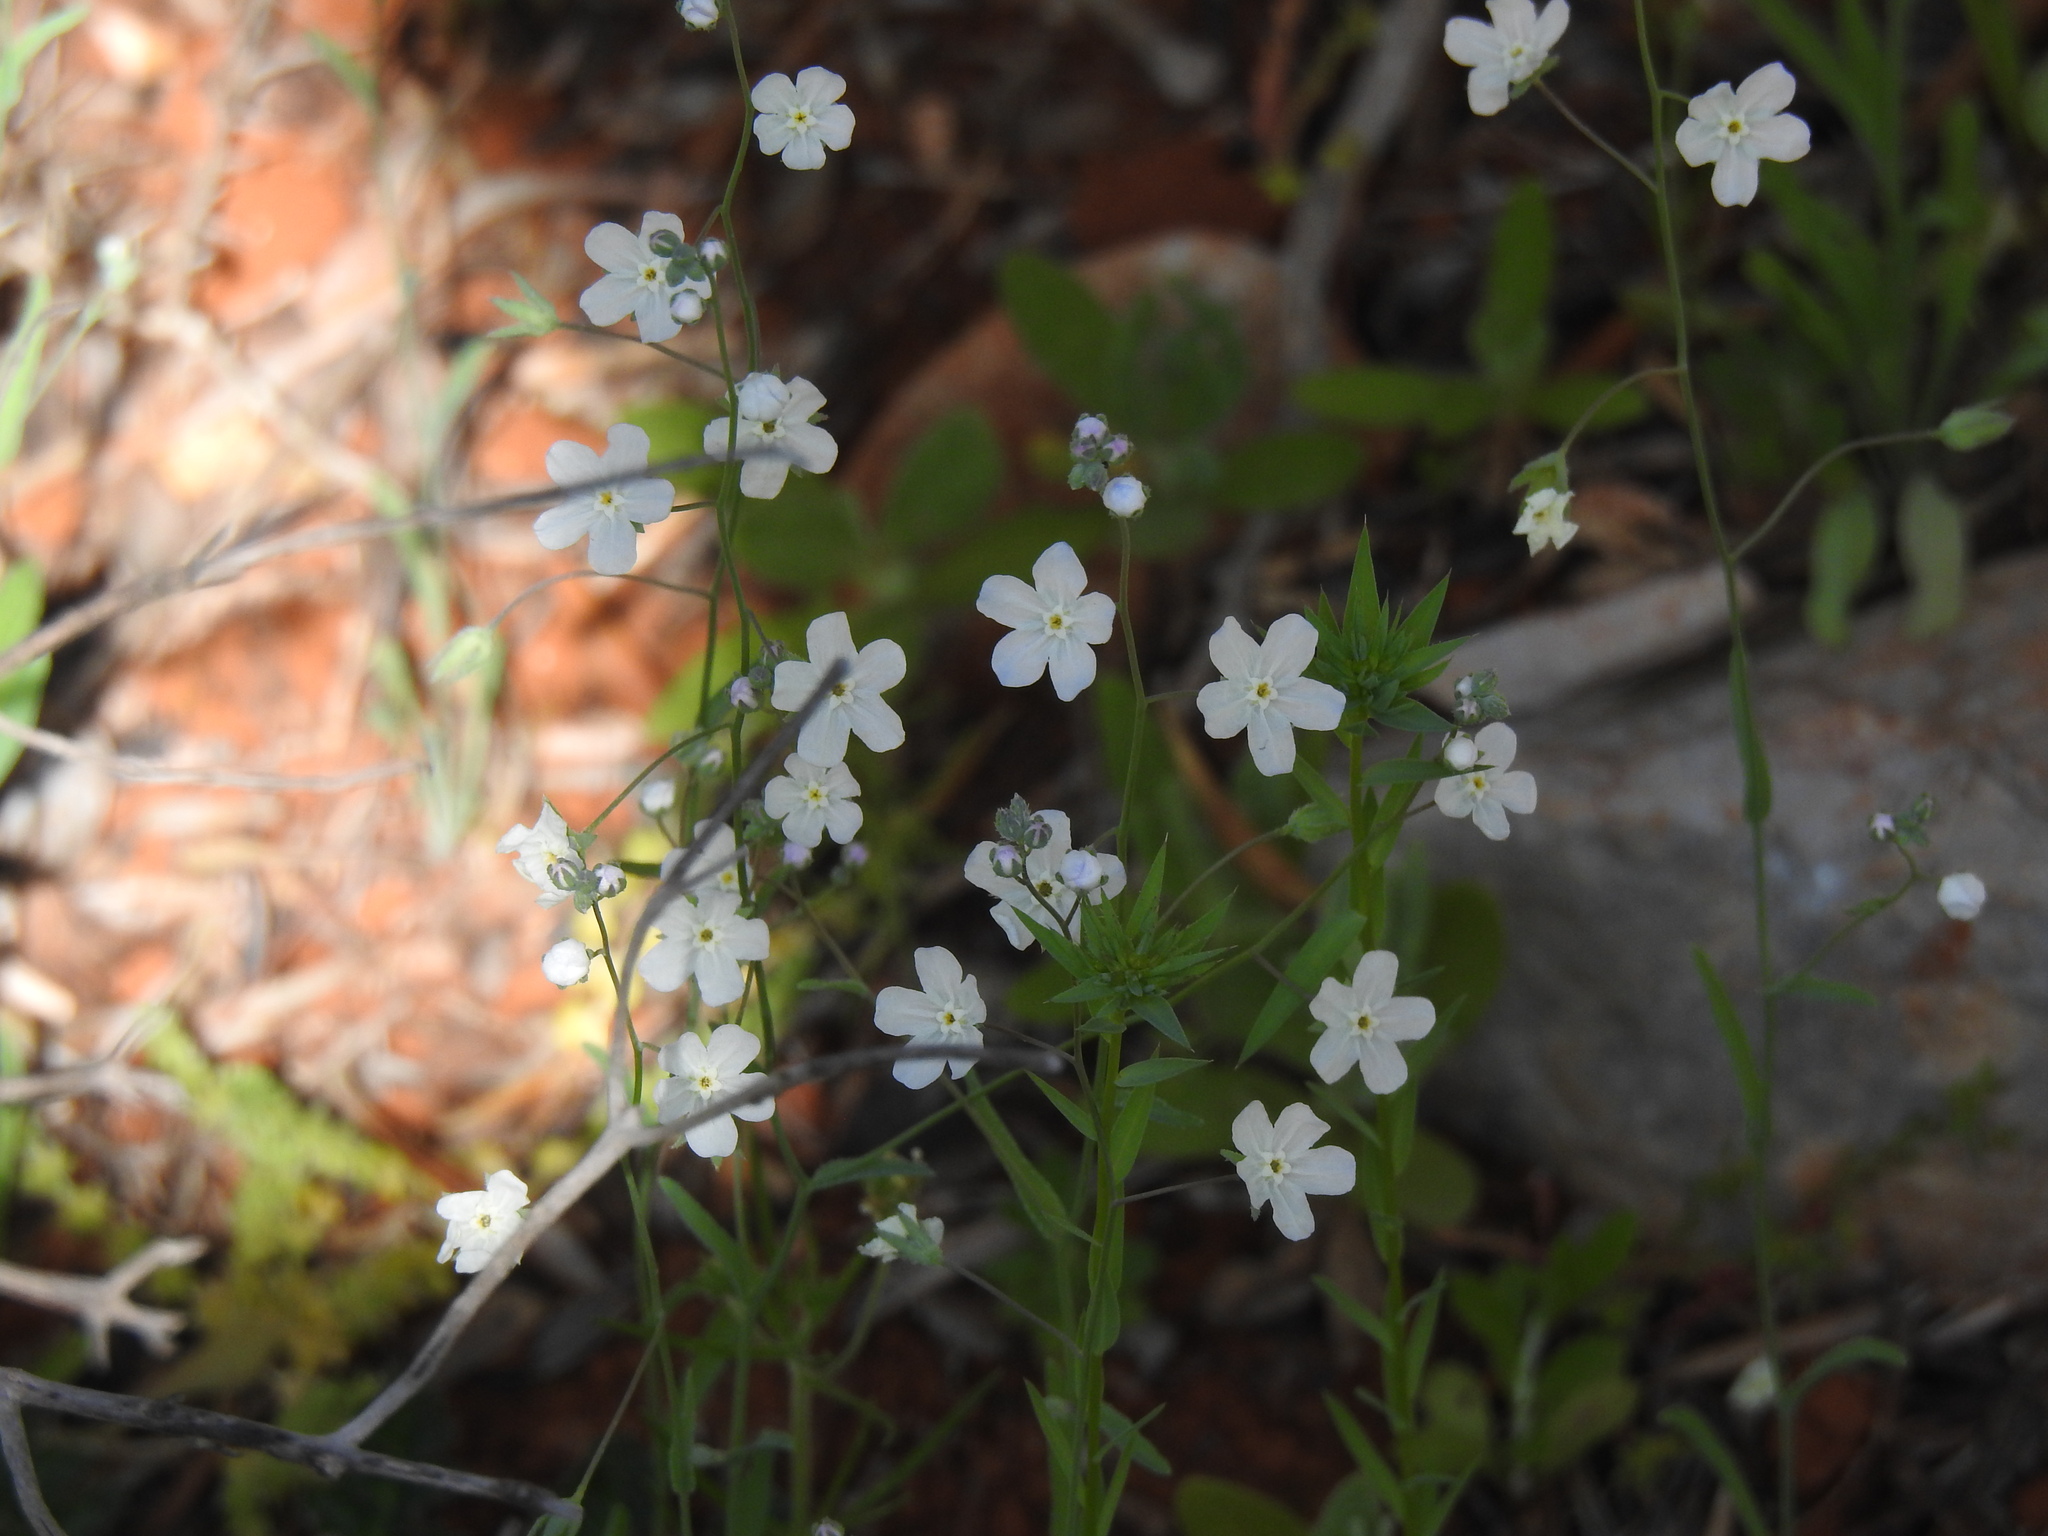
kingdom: Plantae
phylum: Tracheophyta
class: Magnoliopsida
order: Boraginales
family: Boraginaceae
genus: Iberodes
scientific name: Iberodes linifolia
